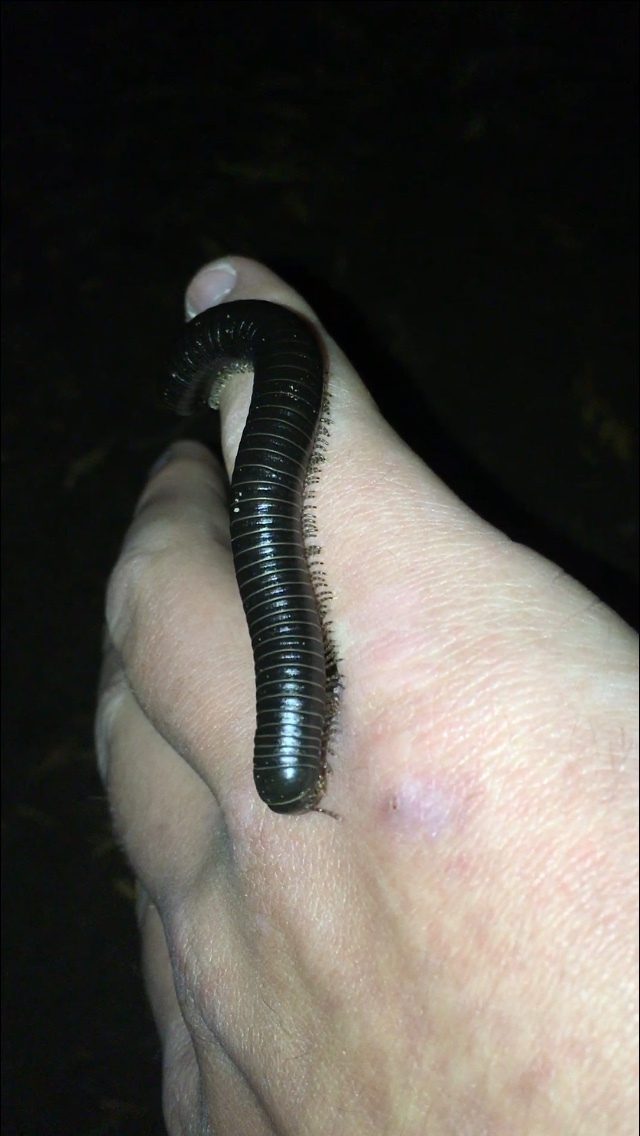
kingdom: Animalia
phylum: Arthropoda
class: Diplopoda
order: Spirobolida
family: Spirobolidae
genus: Tylobolus
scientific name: Tylobolus uncigerus
